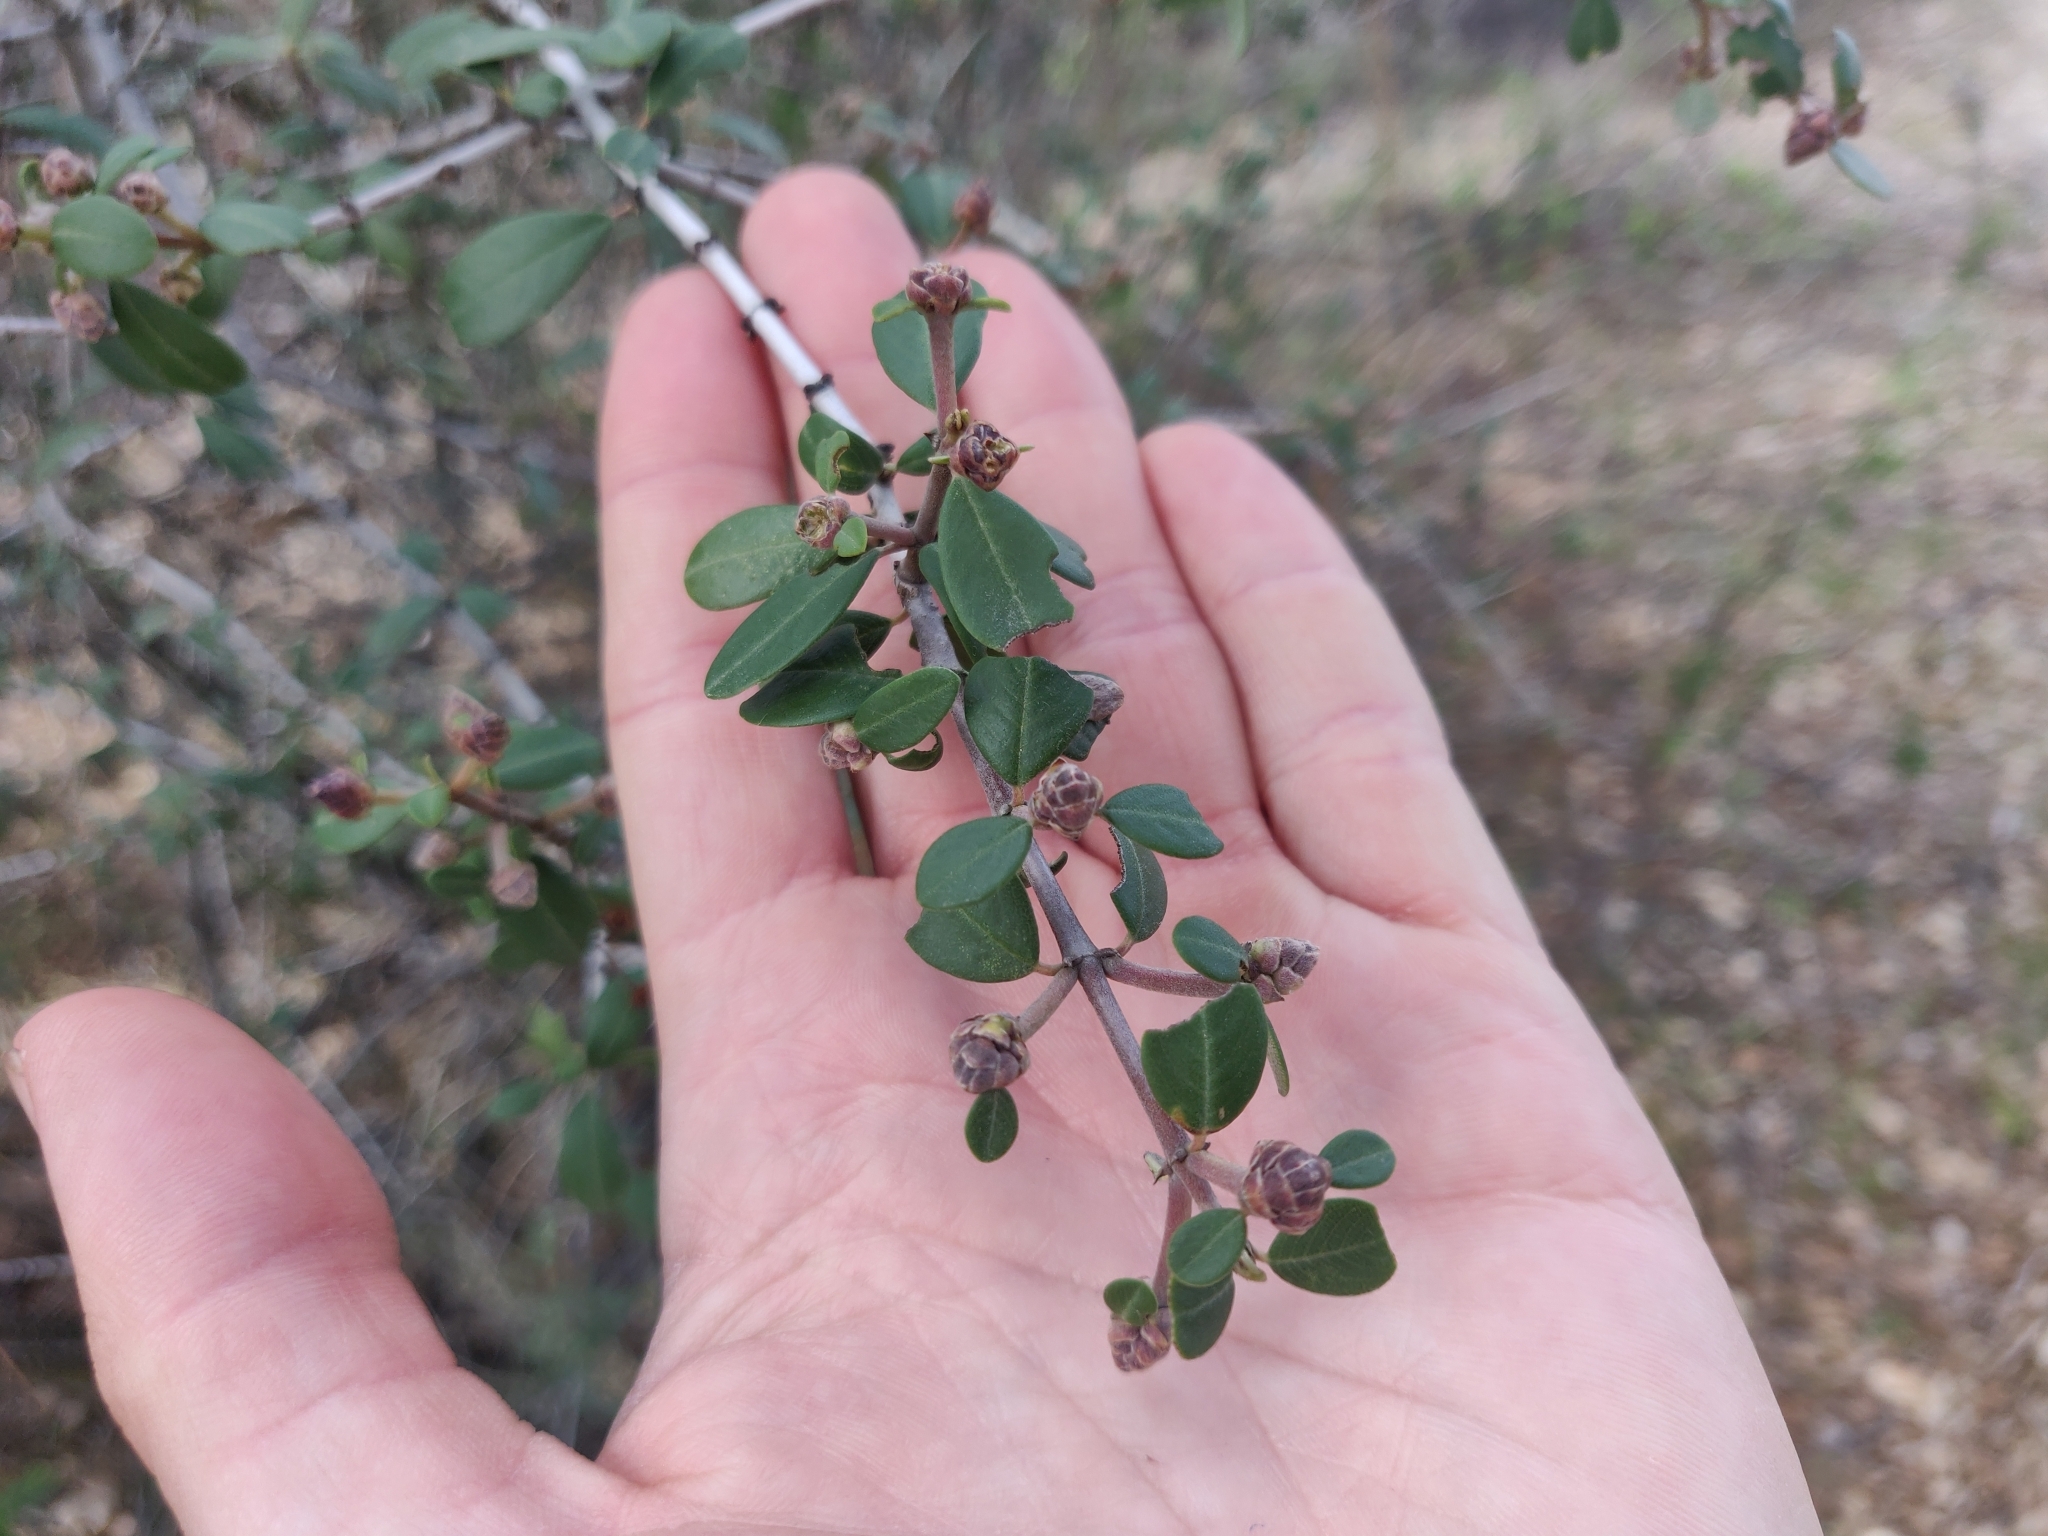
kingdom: Plantae
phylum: Tracheophyta
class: Magnoliopsida
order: Rosales
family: Rhamnaceae
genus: Ceanothus
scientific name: Ceanothus cuneatus
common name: Cuneate ceanothus
